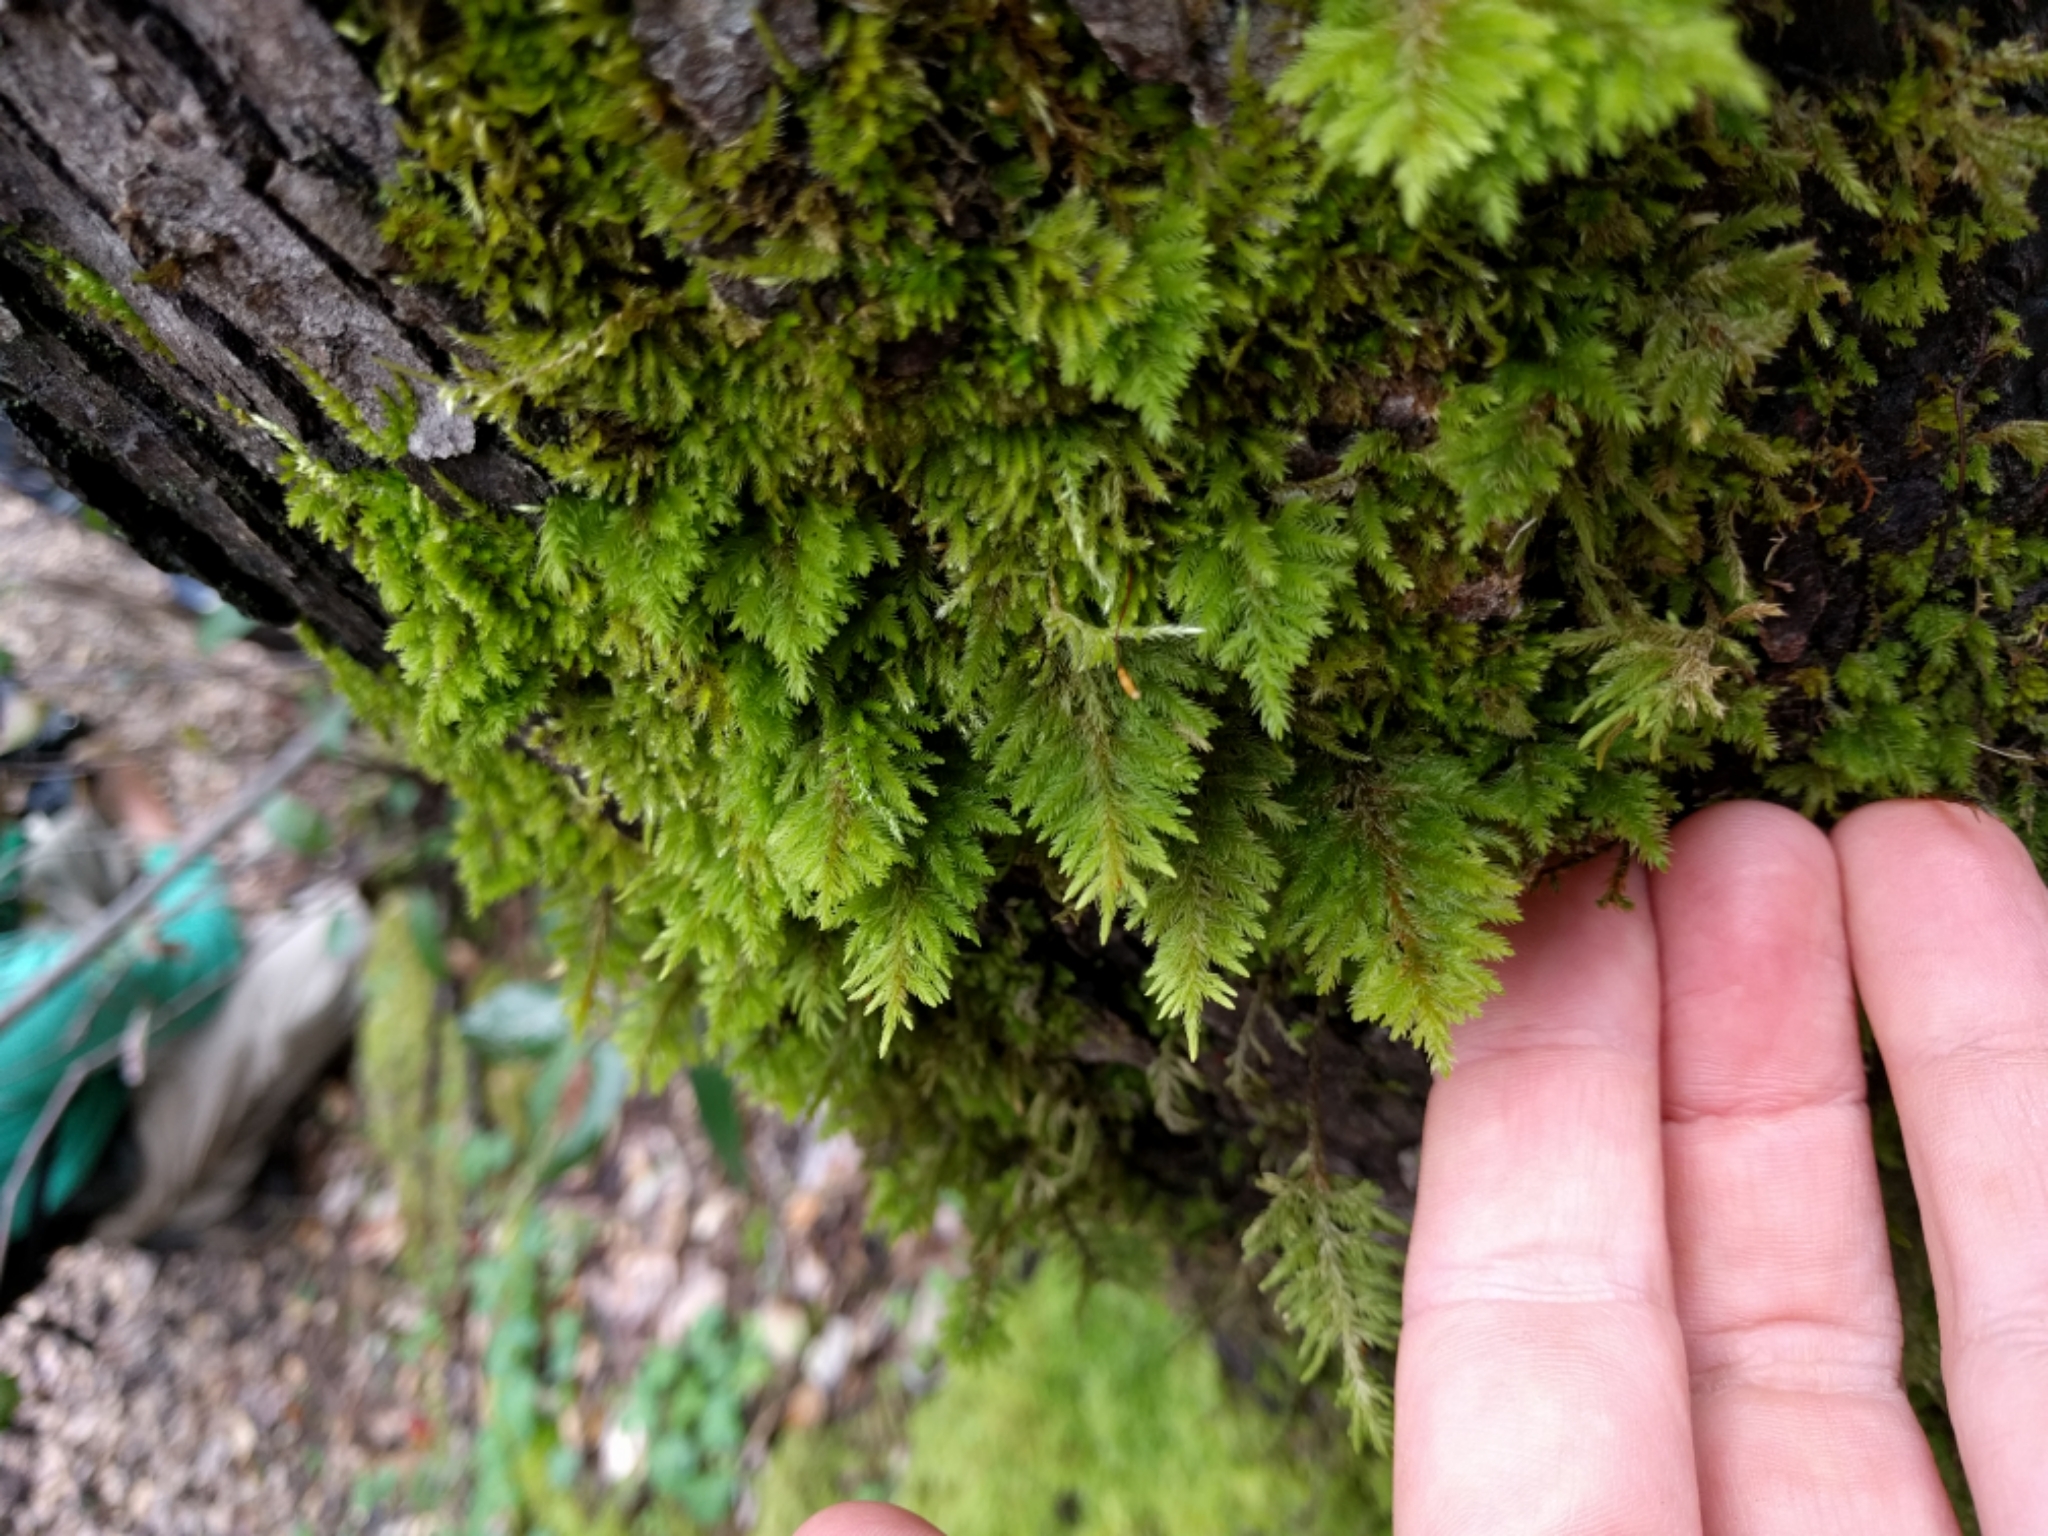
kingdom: Plantae
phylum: Bryophyta
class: Bryopsida
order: Hypnales
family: Cryphaeaceae
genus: Dendroalsia
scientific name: Dendroalsia abietina
